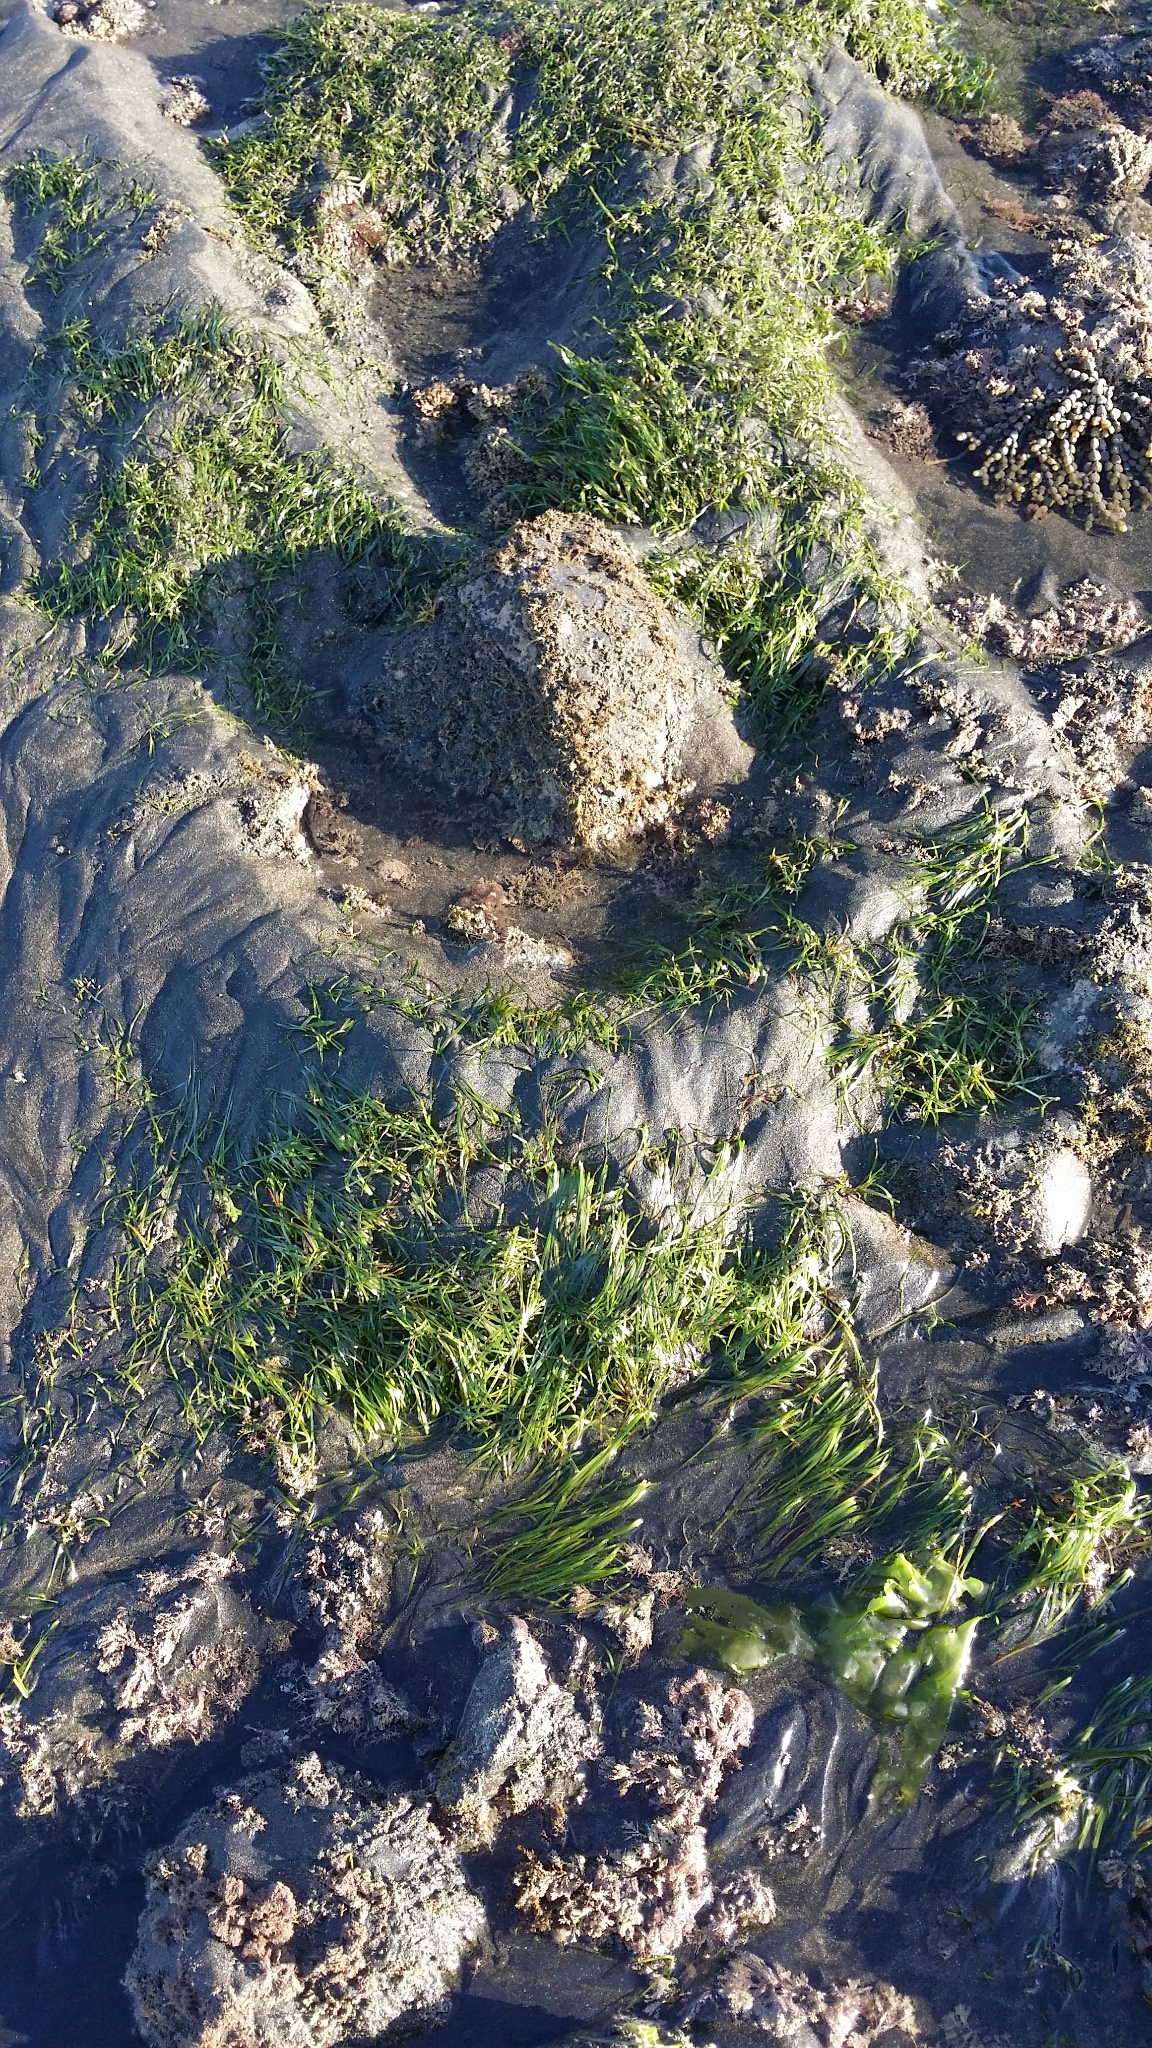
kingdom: Plantae
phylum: Tracheophyta
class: Liliopsida
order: Alismatales
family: Zosteraceae
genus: Zostera
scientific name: Zostera muelleri
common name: Species code: zc
